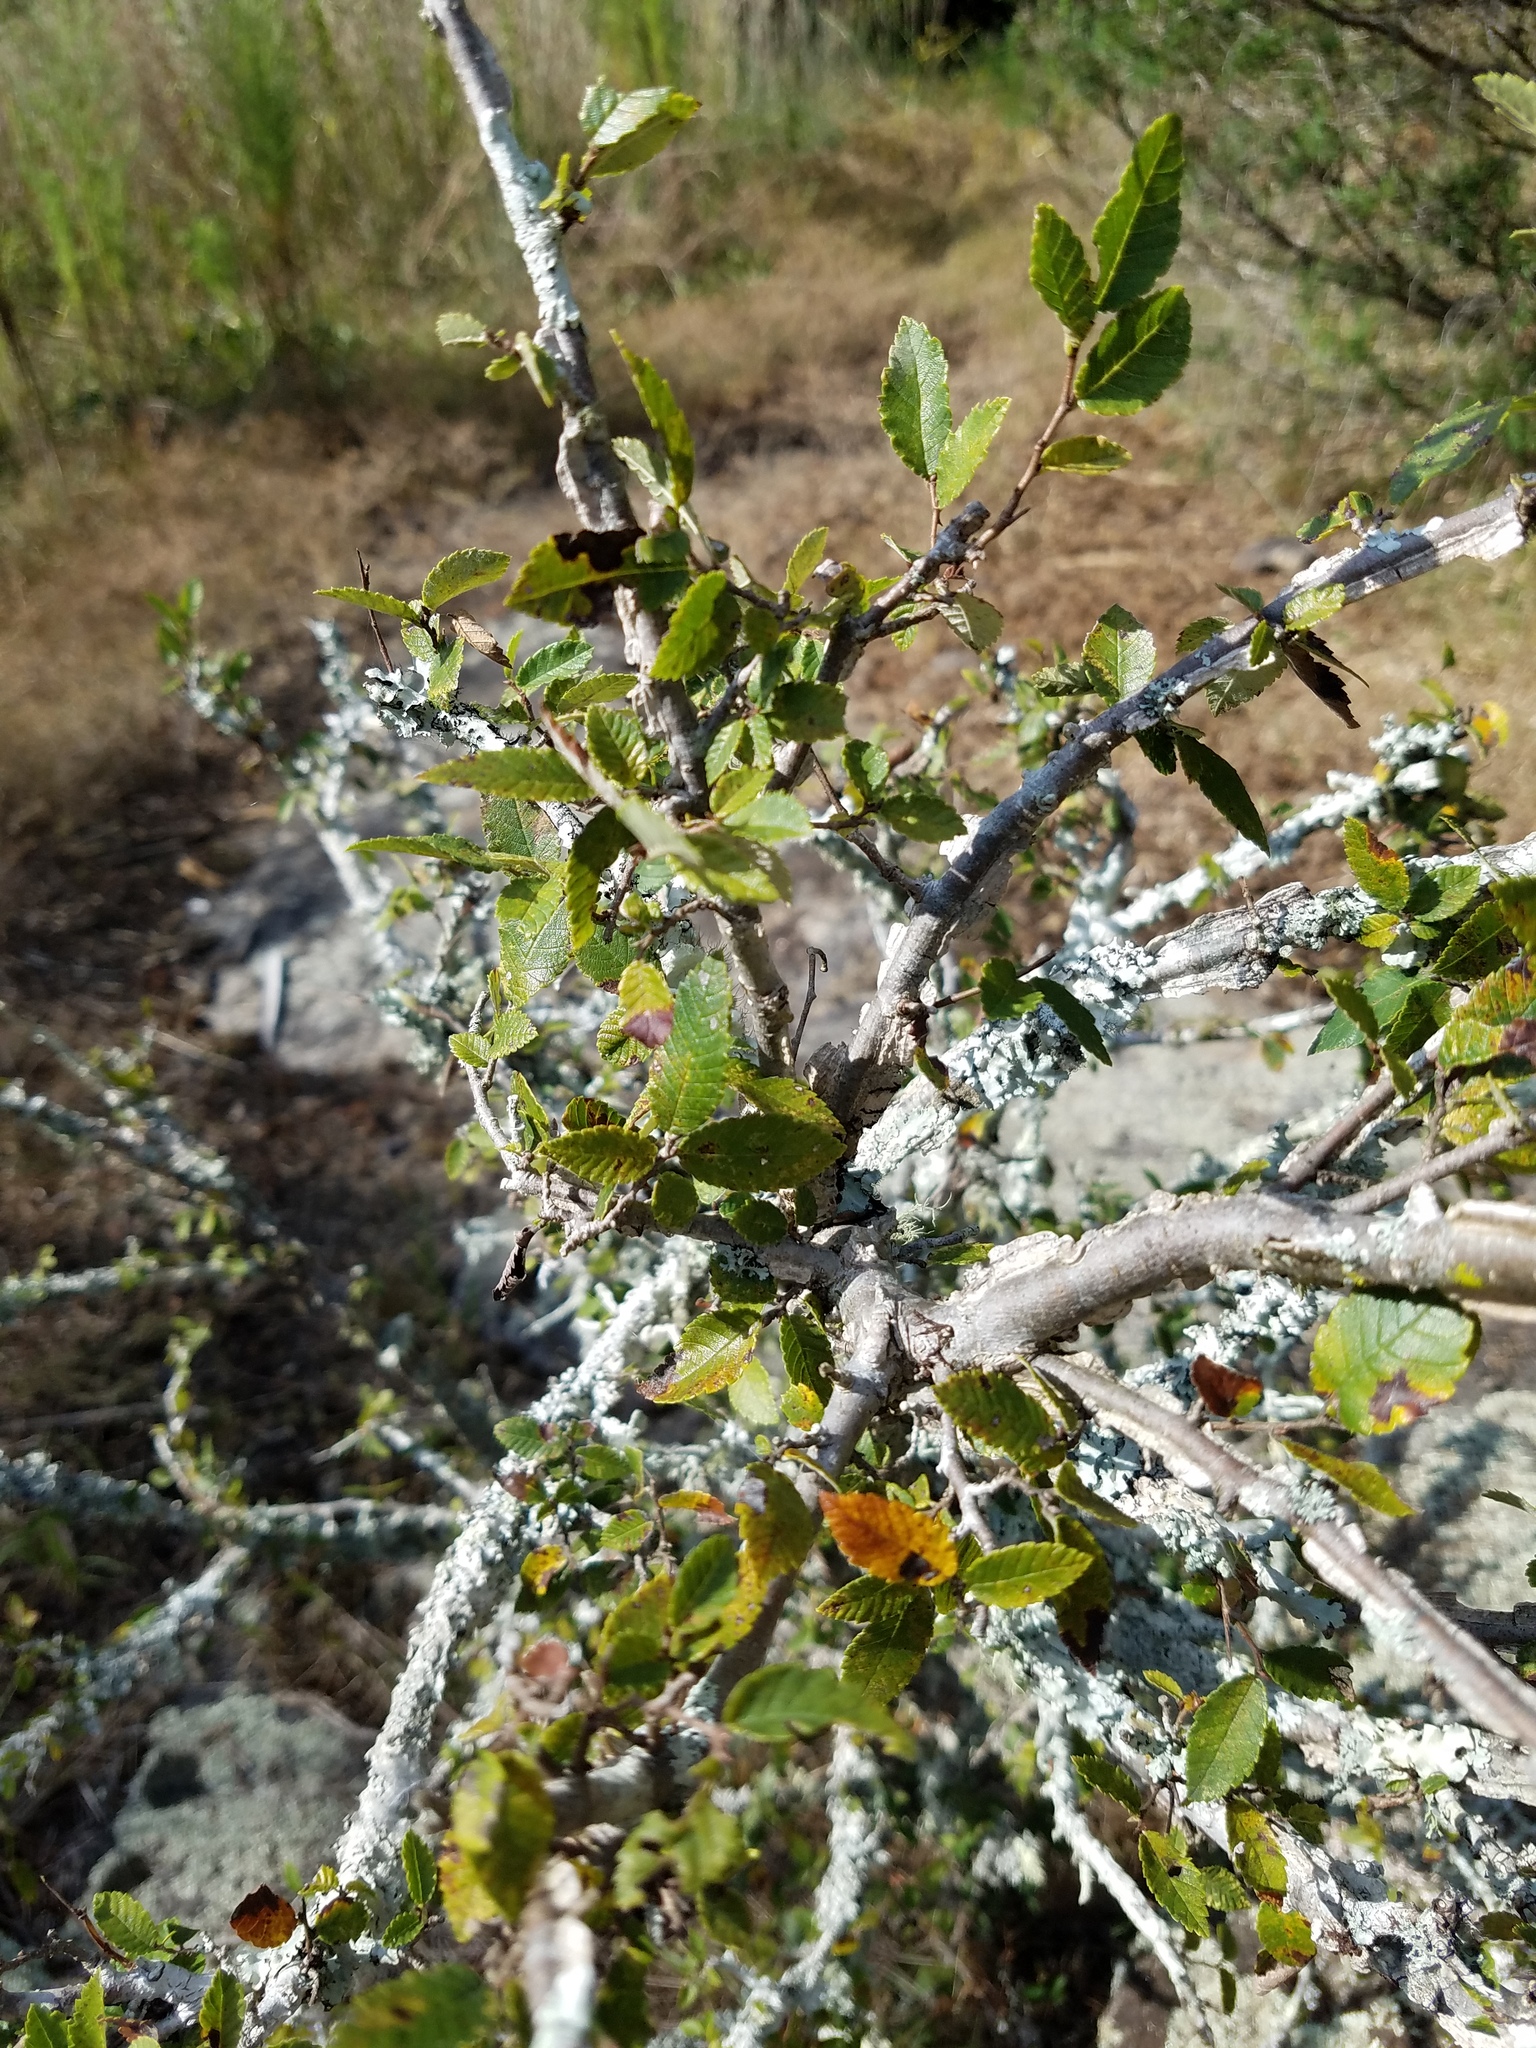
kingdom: Plantae
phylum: Tracheophyta
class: Magnoliopsida
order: Rosales
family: Ulmaceae
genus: Ulmus
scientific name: Ulmus alata
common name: Winged elm
